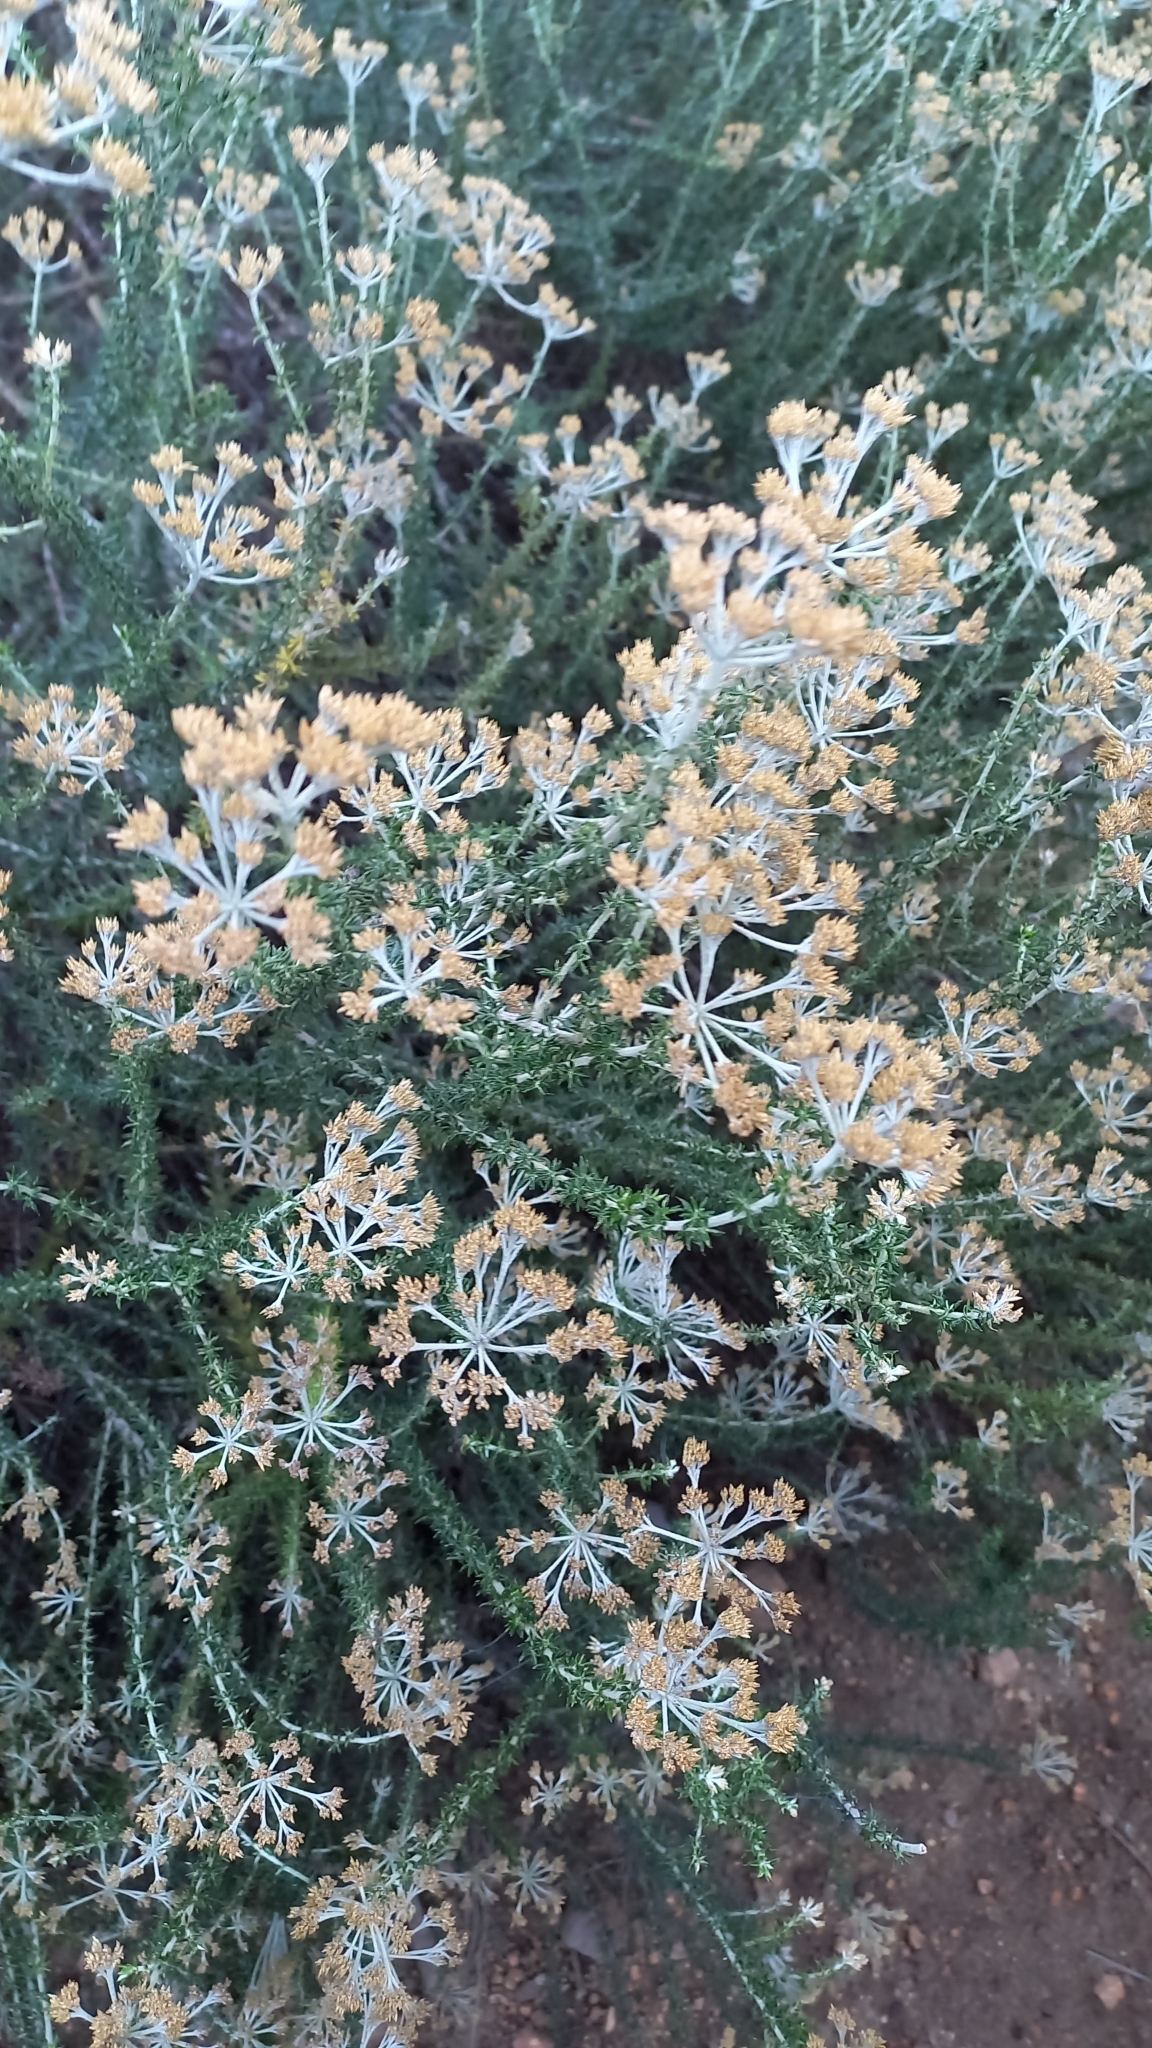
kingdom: Plantae
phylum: Tracheophyta
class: Magnoliopsida
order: Asterales
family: Asteraceae
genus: Metalasia
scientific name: Metalasia densa
